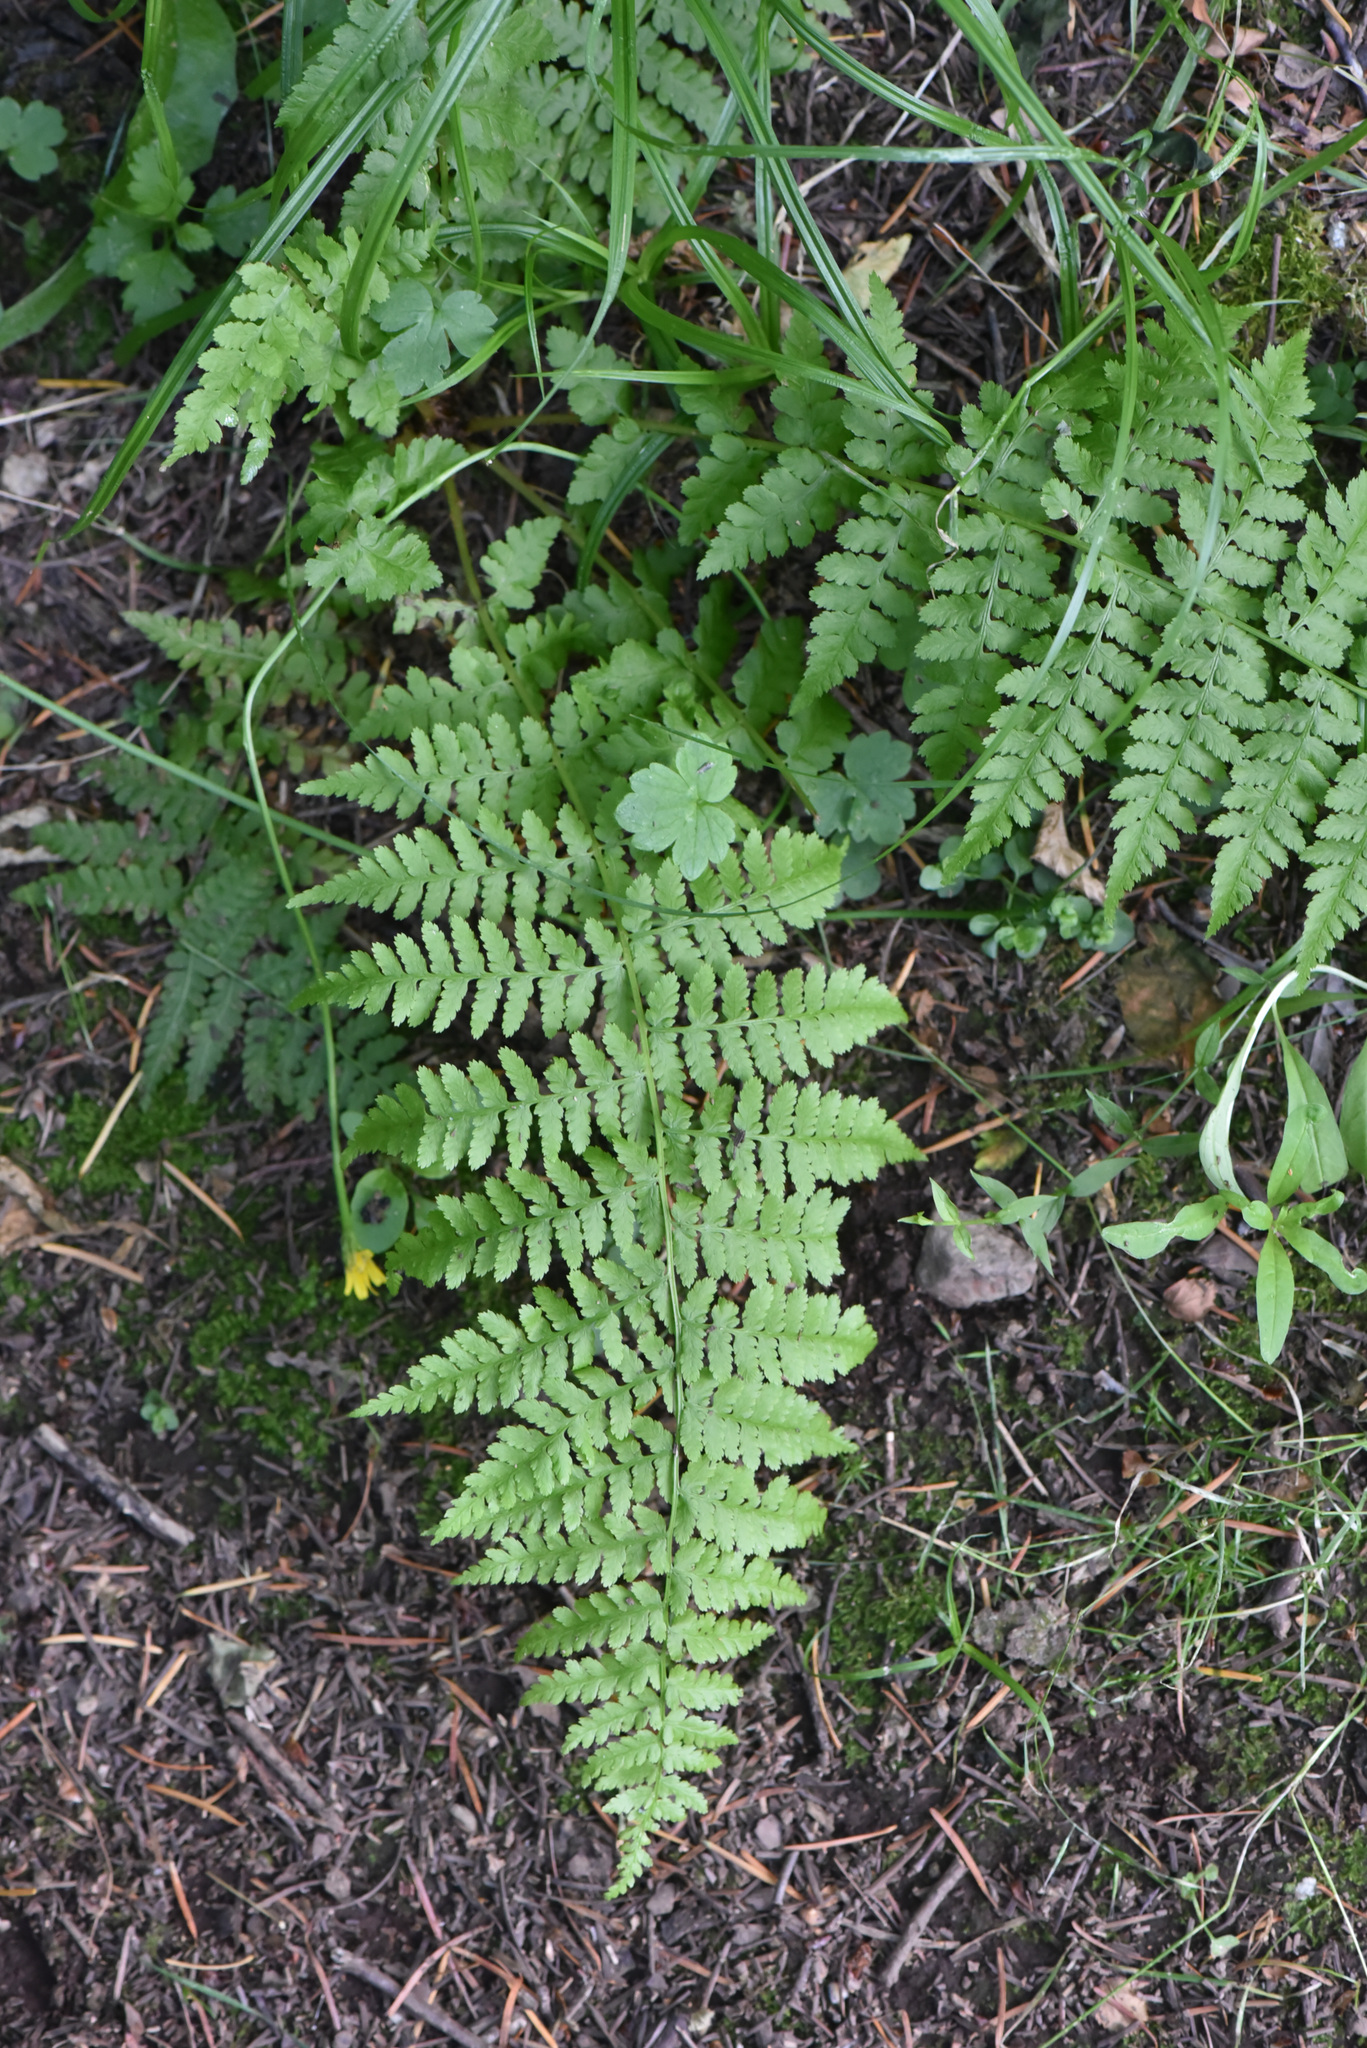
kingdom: Plantae
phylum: Tracheophyta
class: Polypodiopsida
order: Polypodiales
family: Athyriaceae
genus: Athyrium
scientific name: Athyrium filix-femina
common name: Lady fern
